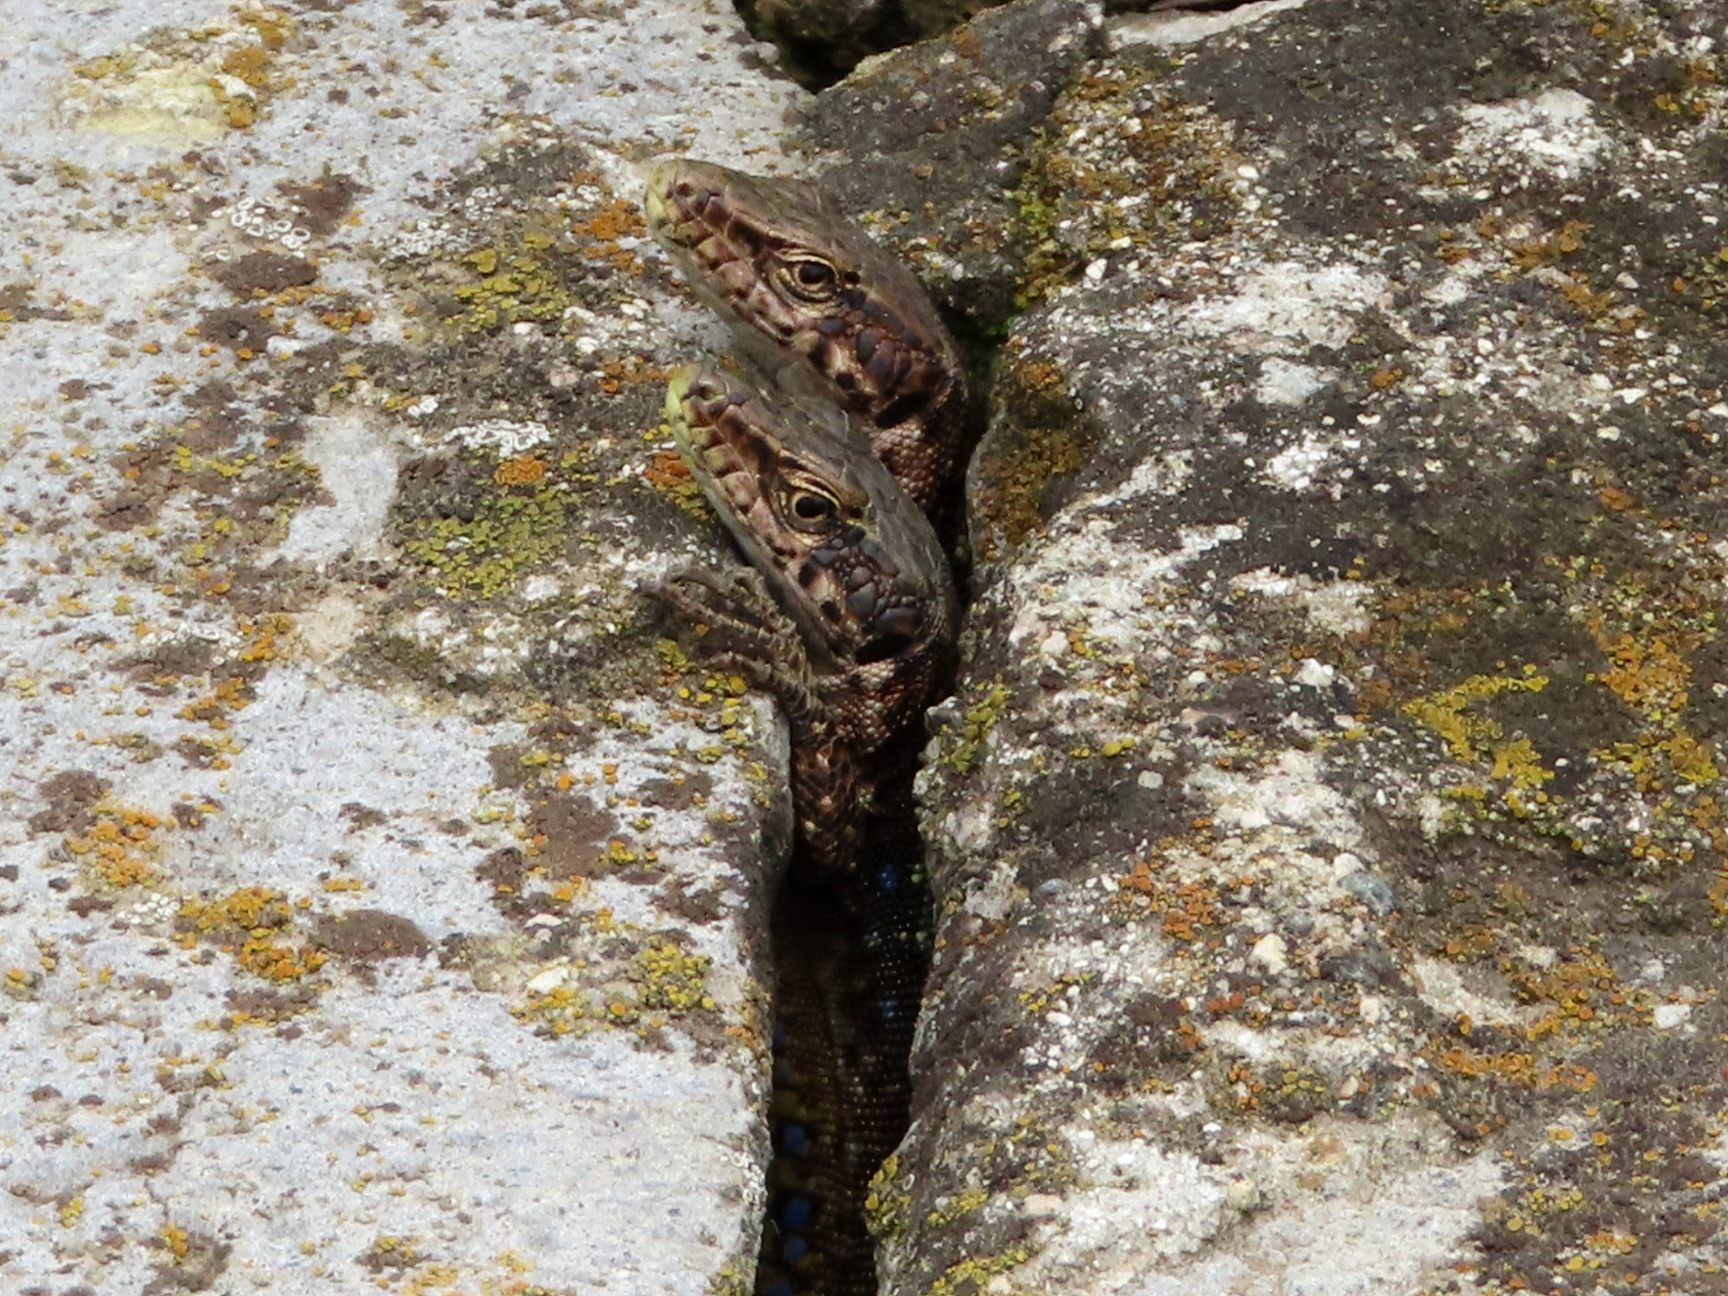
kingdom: Animalia
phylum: Chordata
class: Squamata
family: Lacertidae
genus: Darevskia
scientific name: Darevskia armeniaca
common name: Armenian lizard
